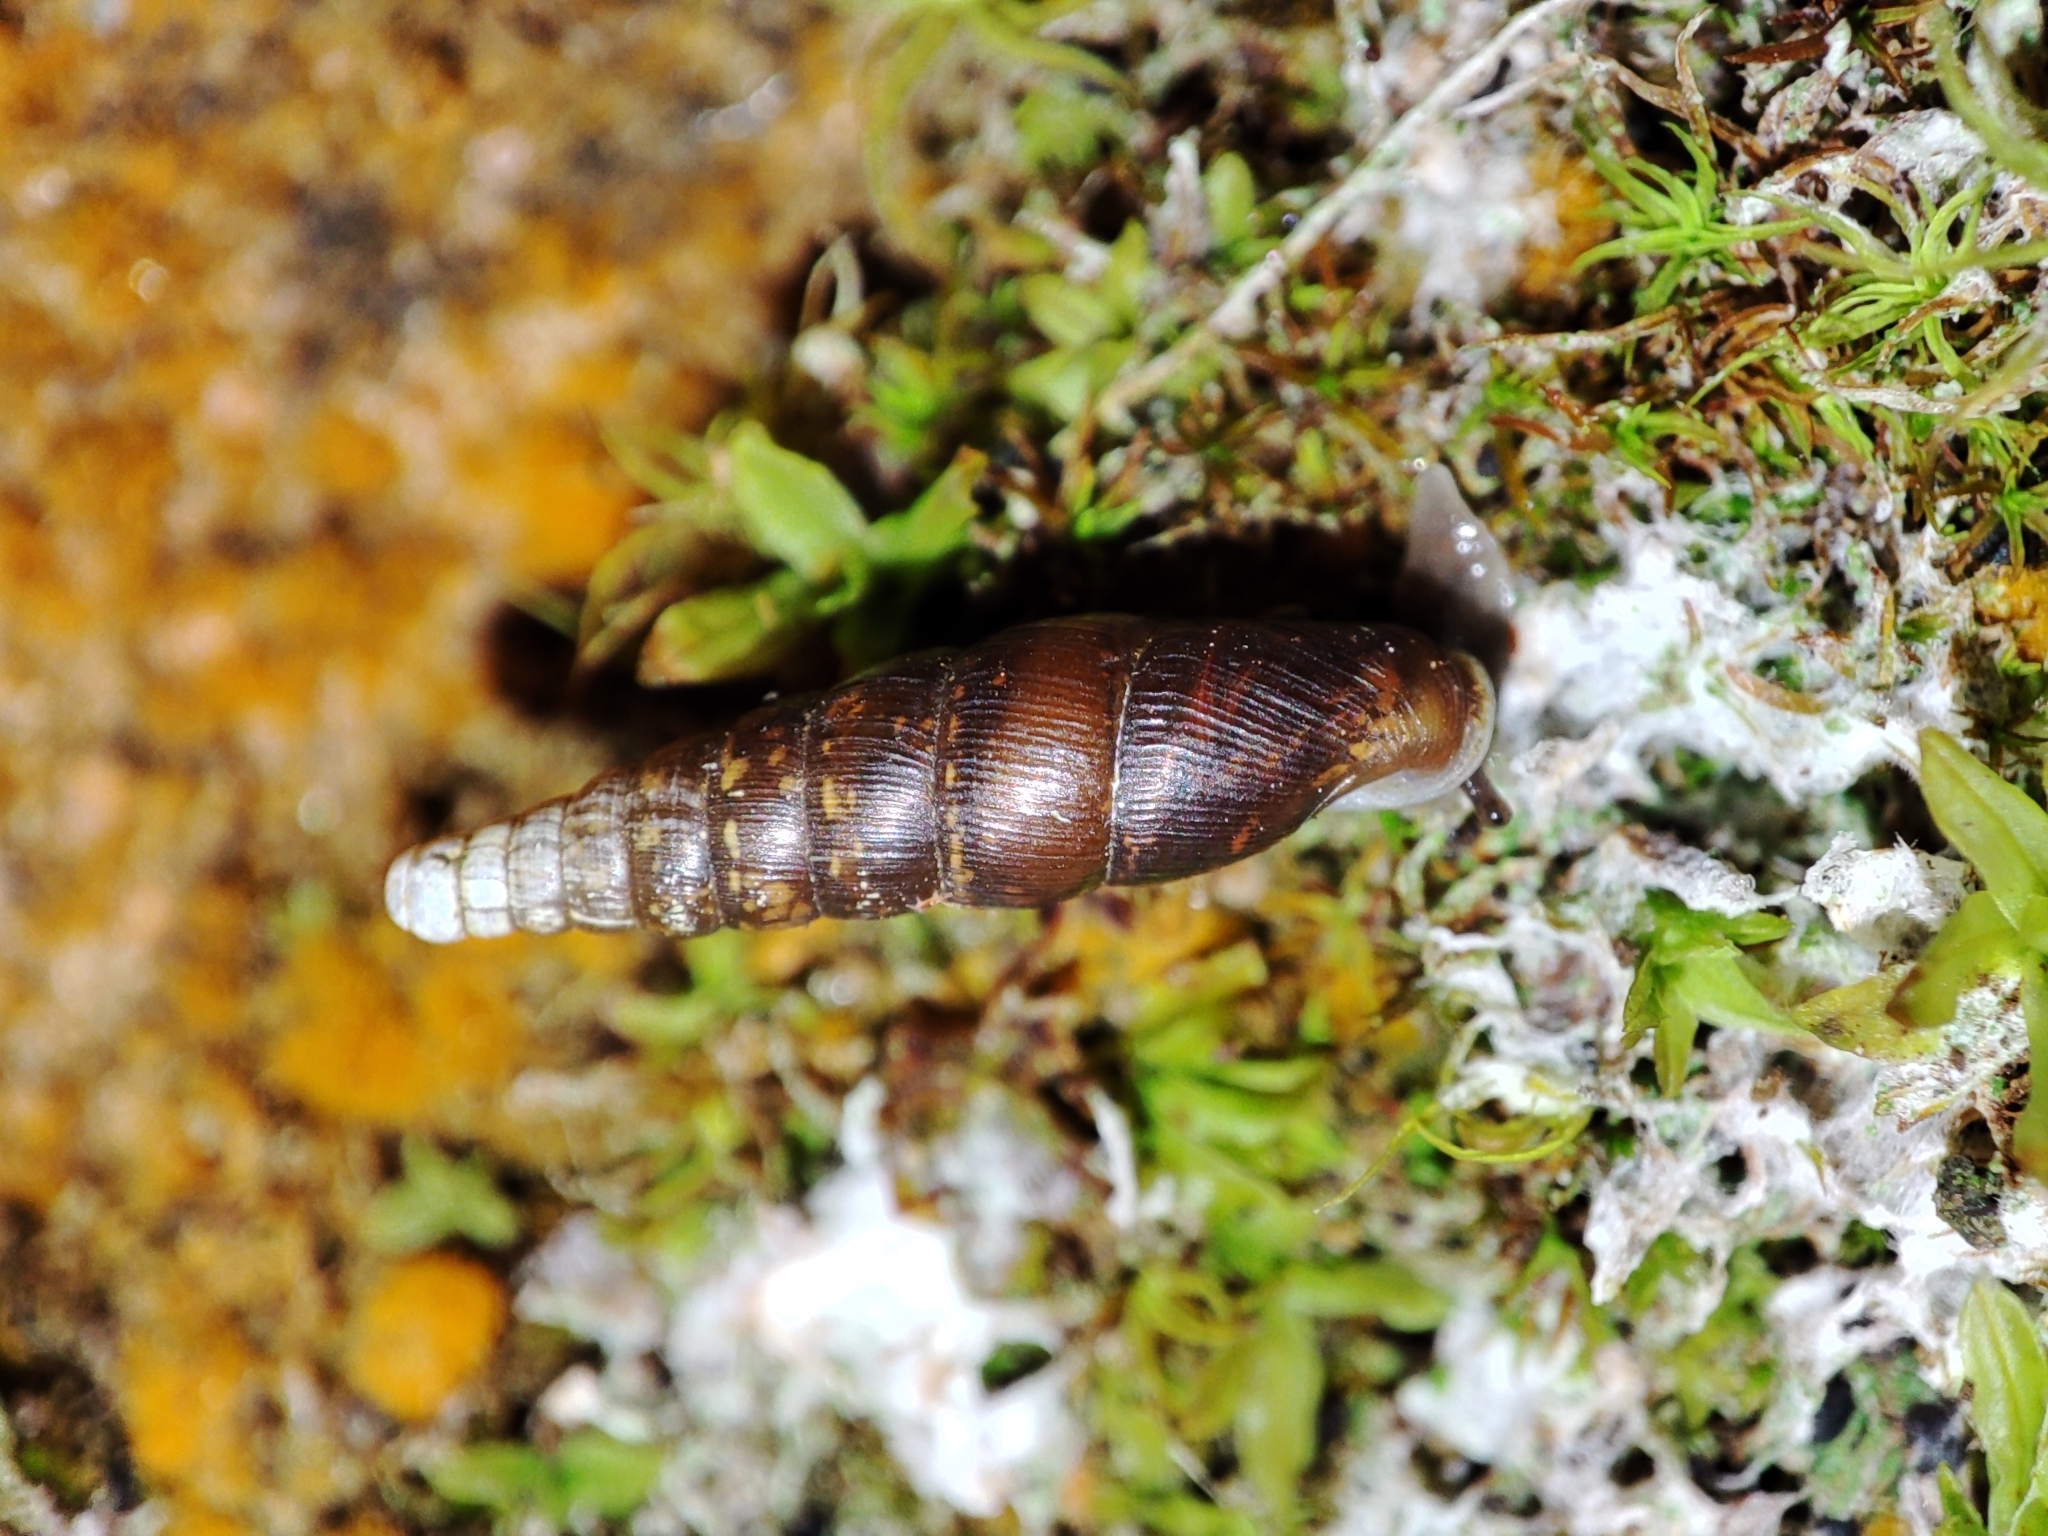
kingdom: Animalia
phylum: Mollusca
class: Gastropoda
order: Stylommatophora
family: Clausiliidae
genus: Cochlodina
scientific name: Cochlodina orthostoma
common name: Straightmouth door snail
